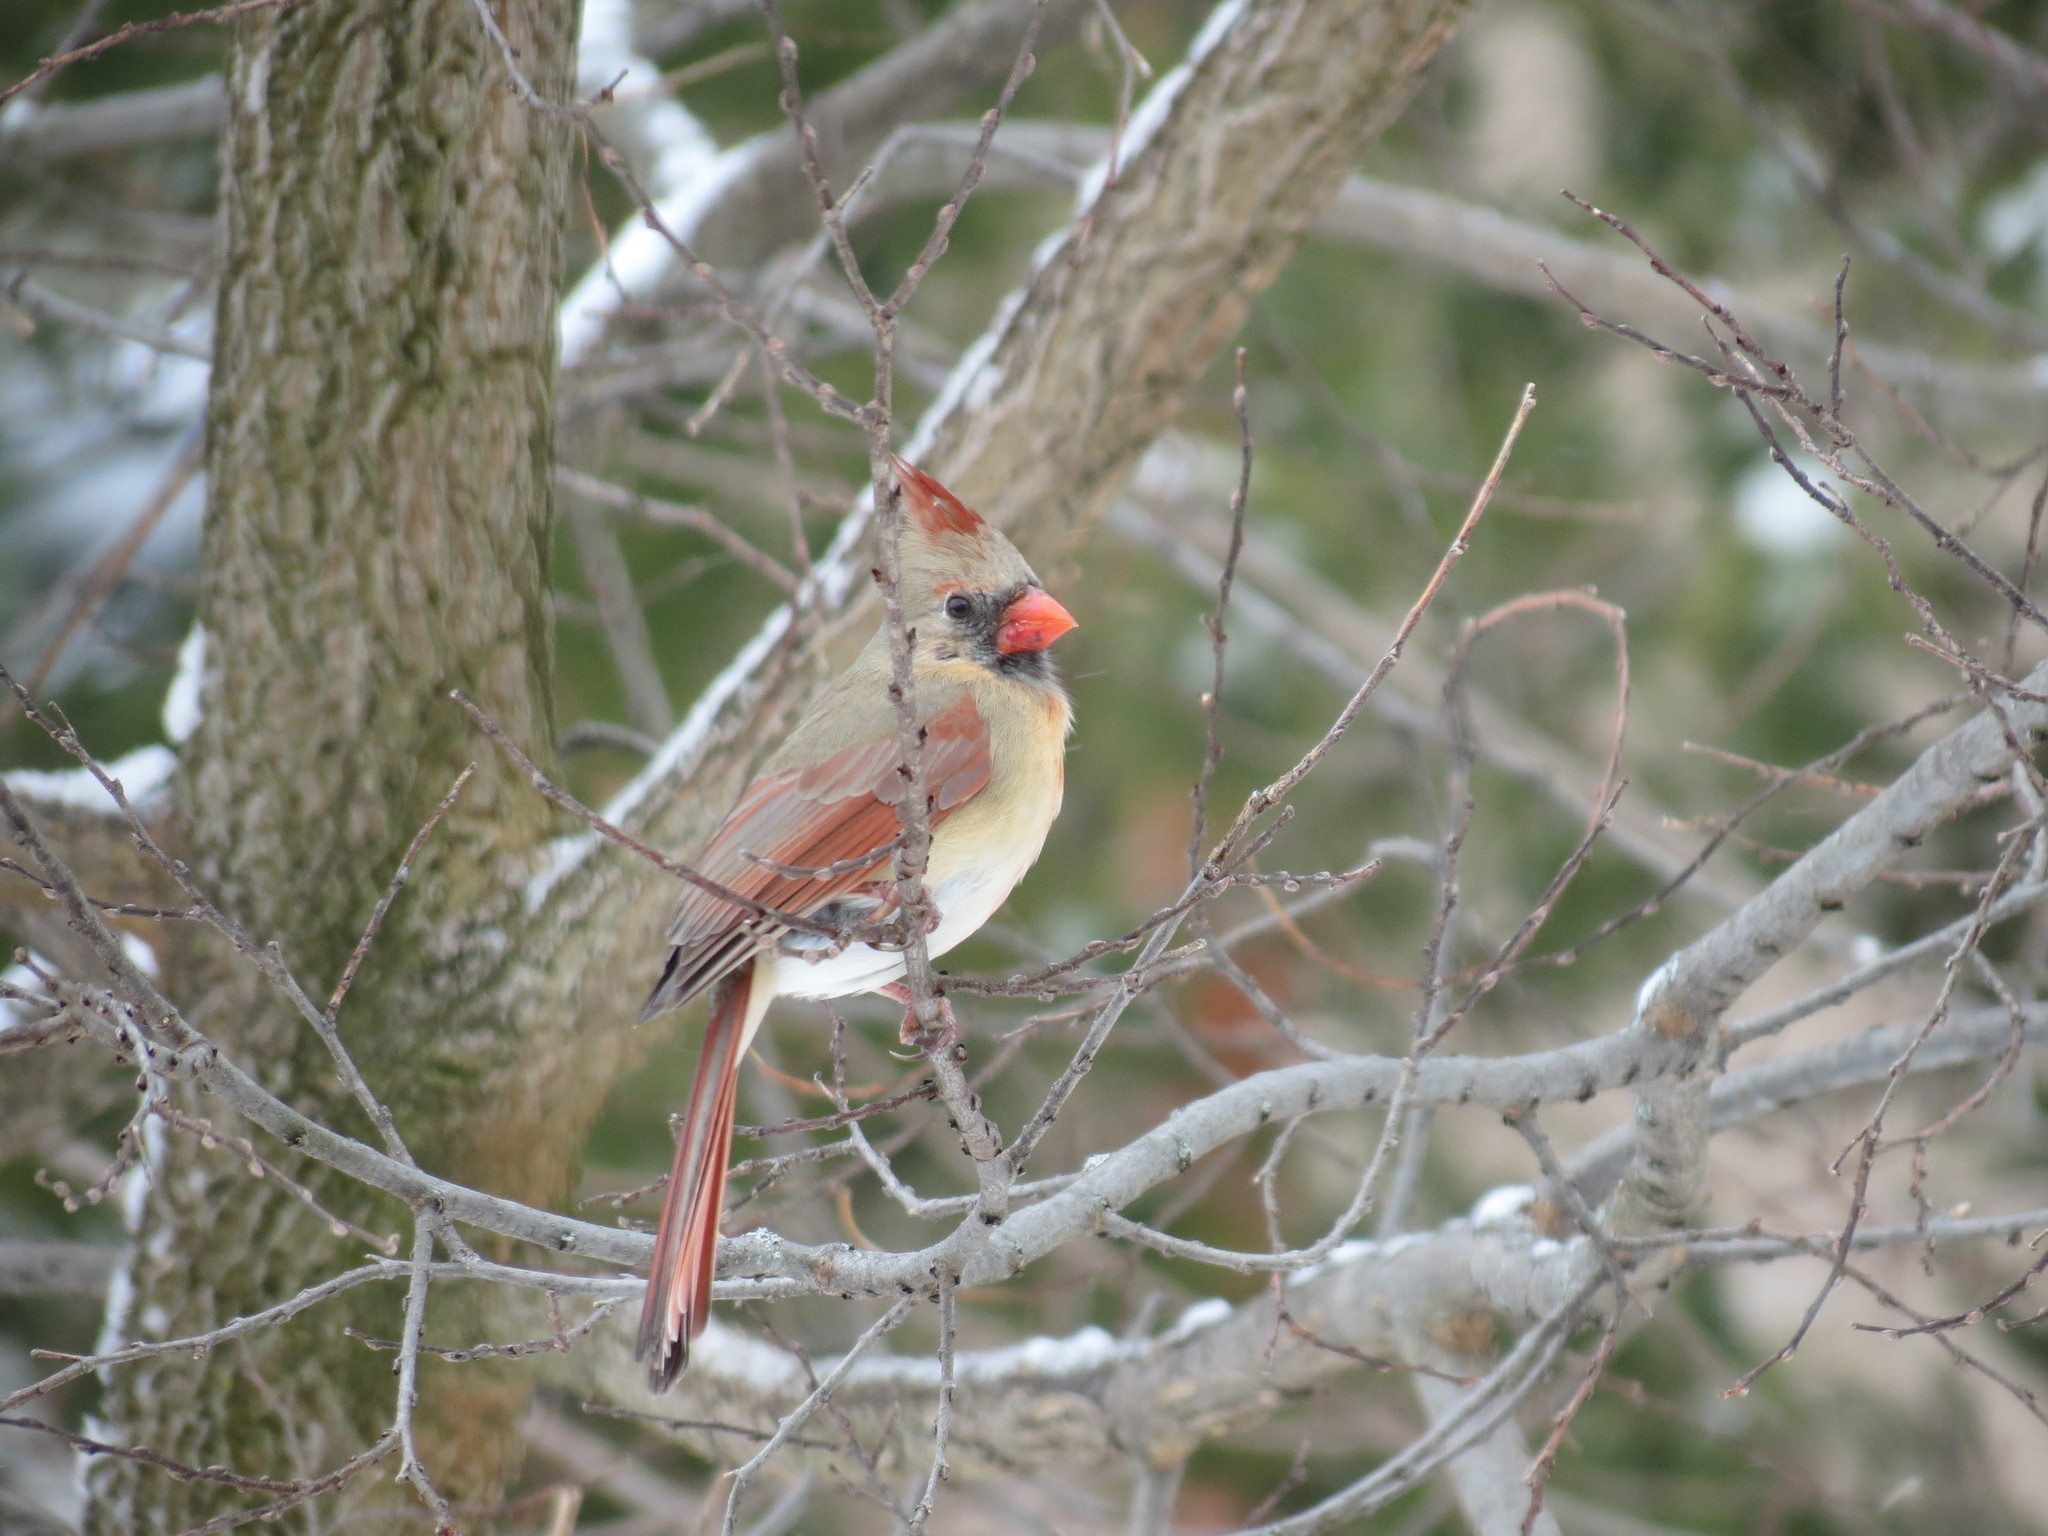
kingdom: Animalia
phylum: Chordata
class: Aves
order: Passeriformes
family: Cardinalidae
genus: Cardinalis
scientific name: Cardinalis cardinalis
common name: Northern cardinal
